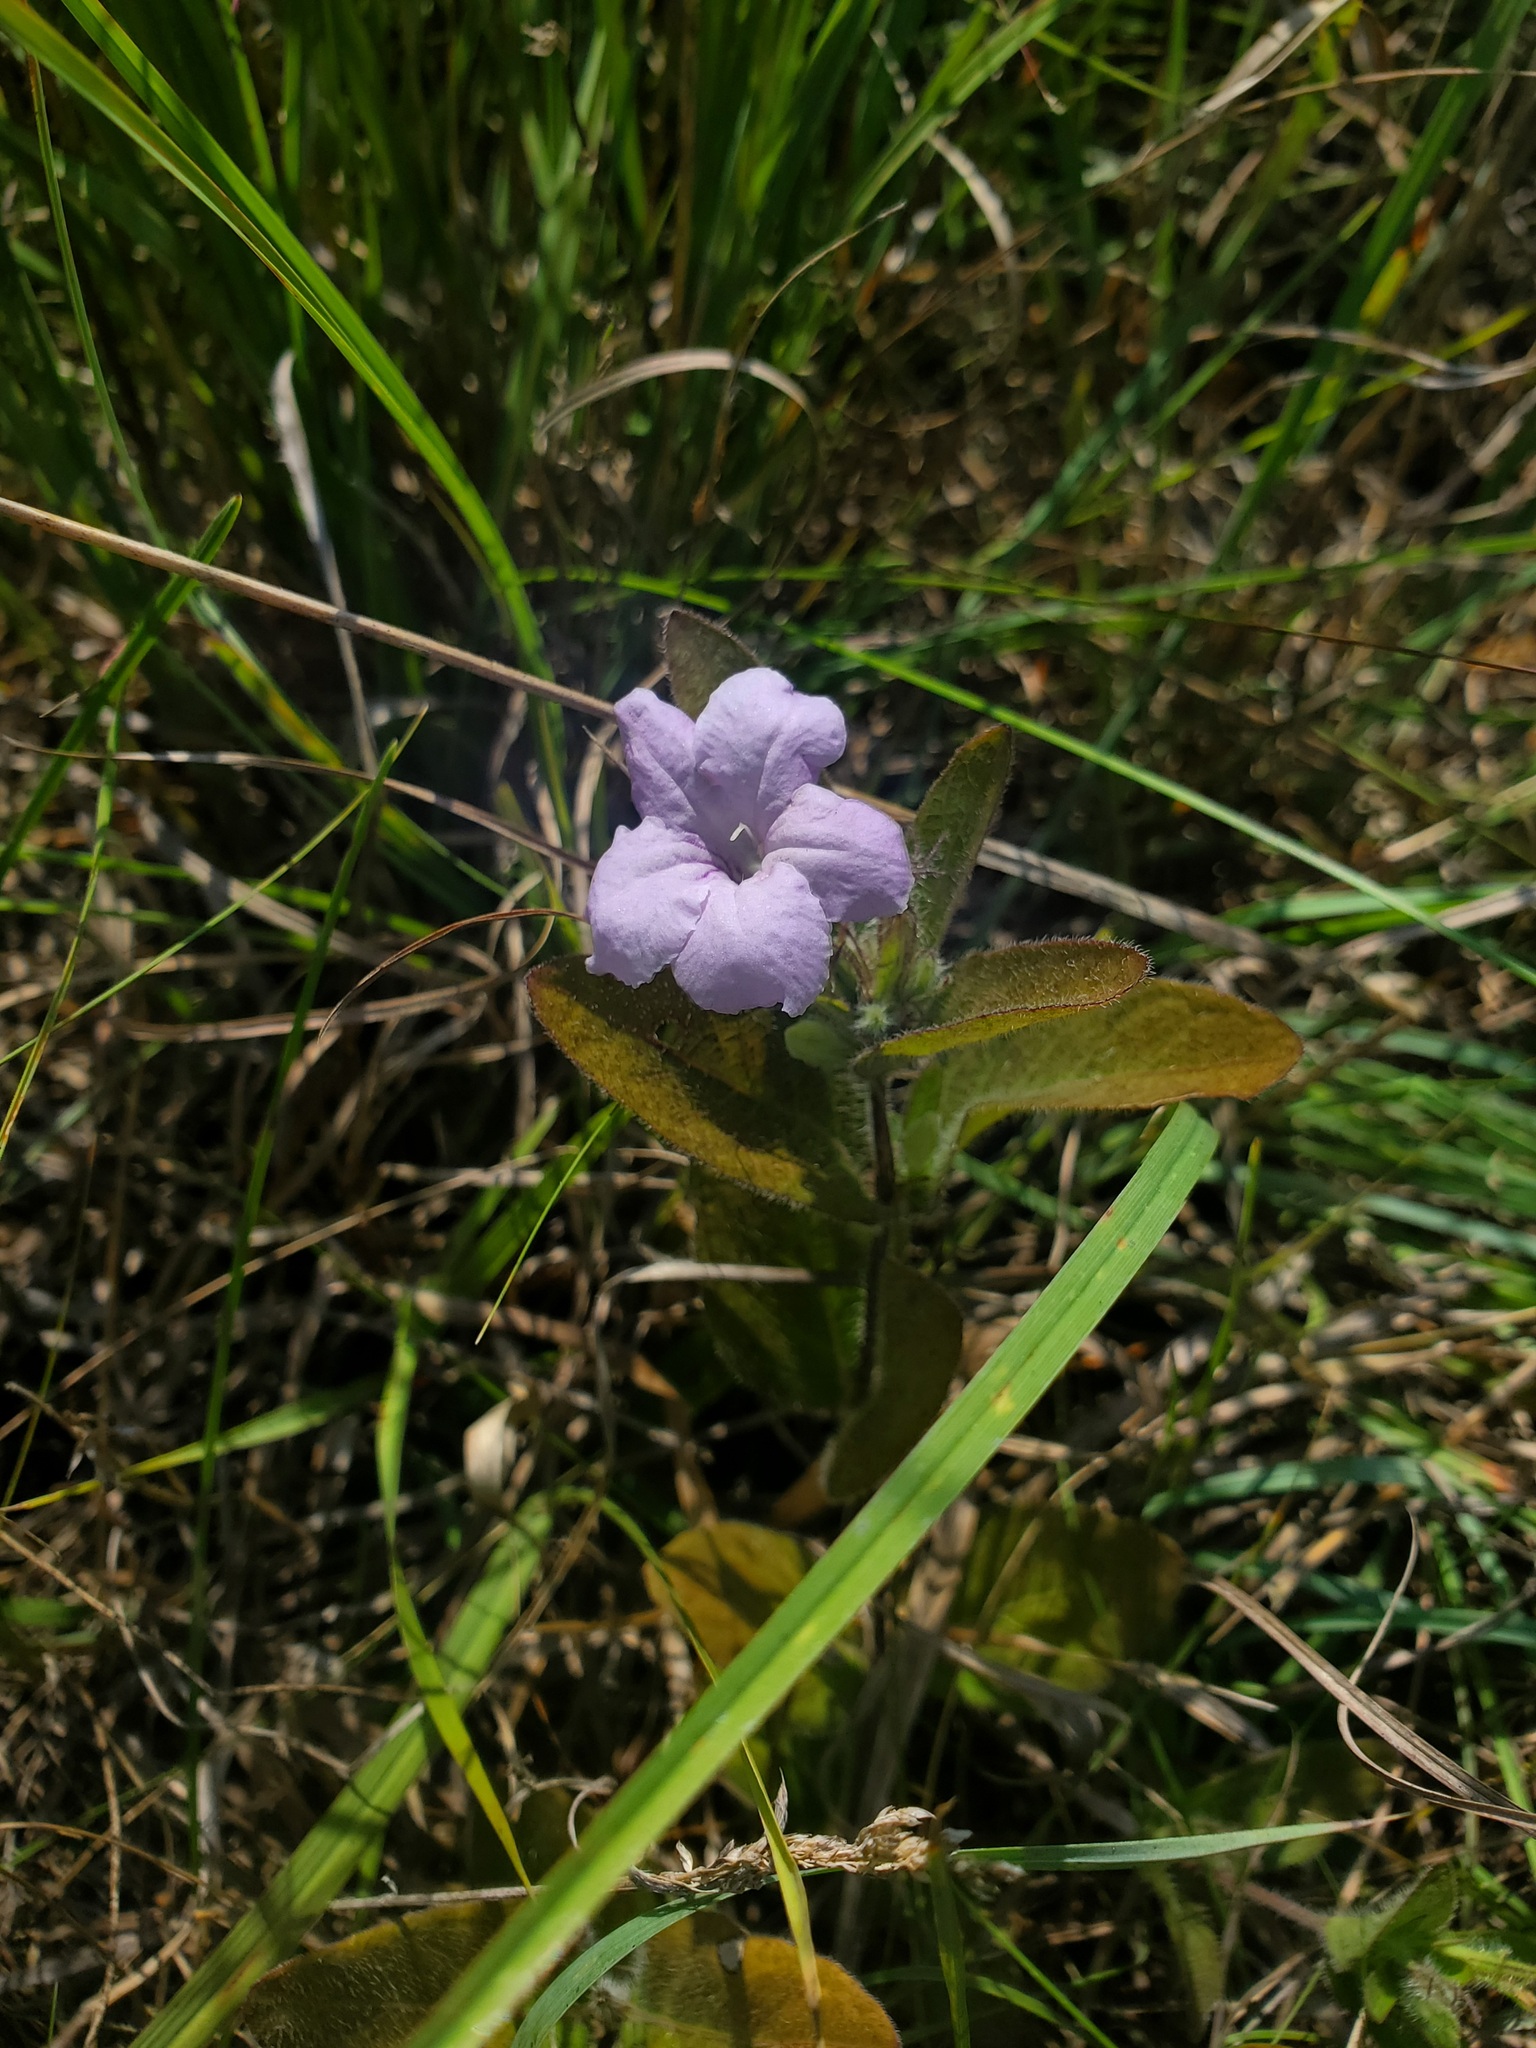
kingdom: Plantae
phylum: Tracheophyta
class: Magnoliopsida
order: Lamiales
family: Acanthaceae
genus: Ruellia
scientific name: Ruellia humilis
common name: Fringe-leaf ruellia
